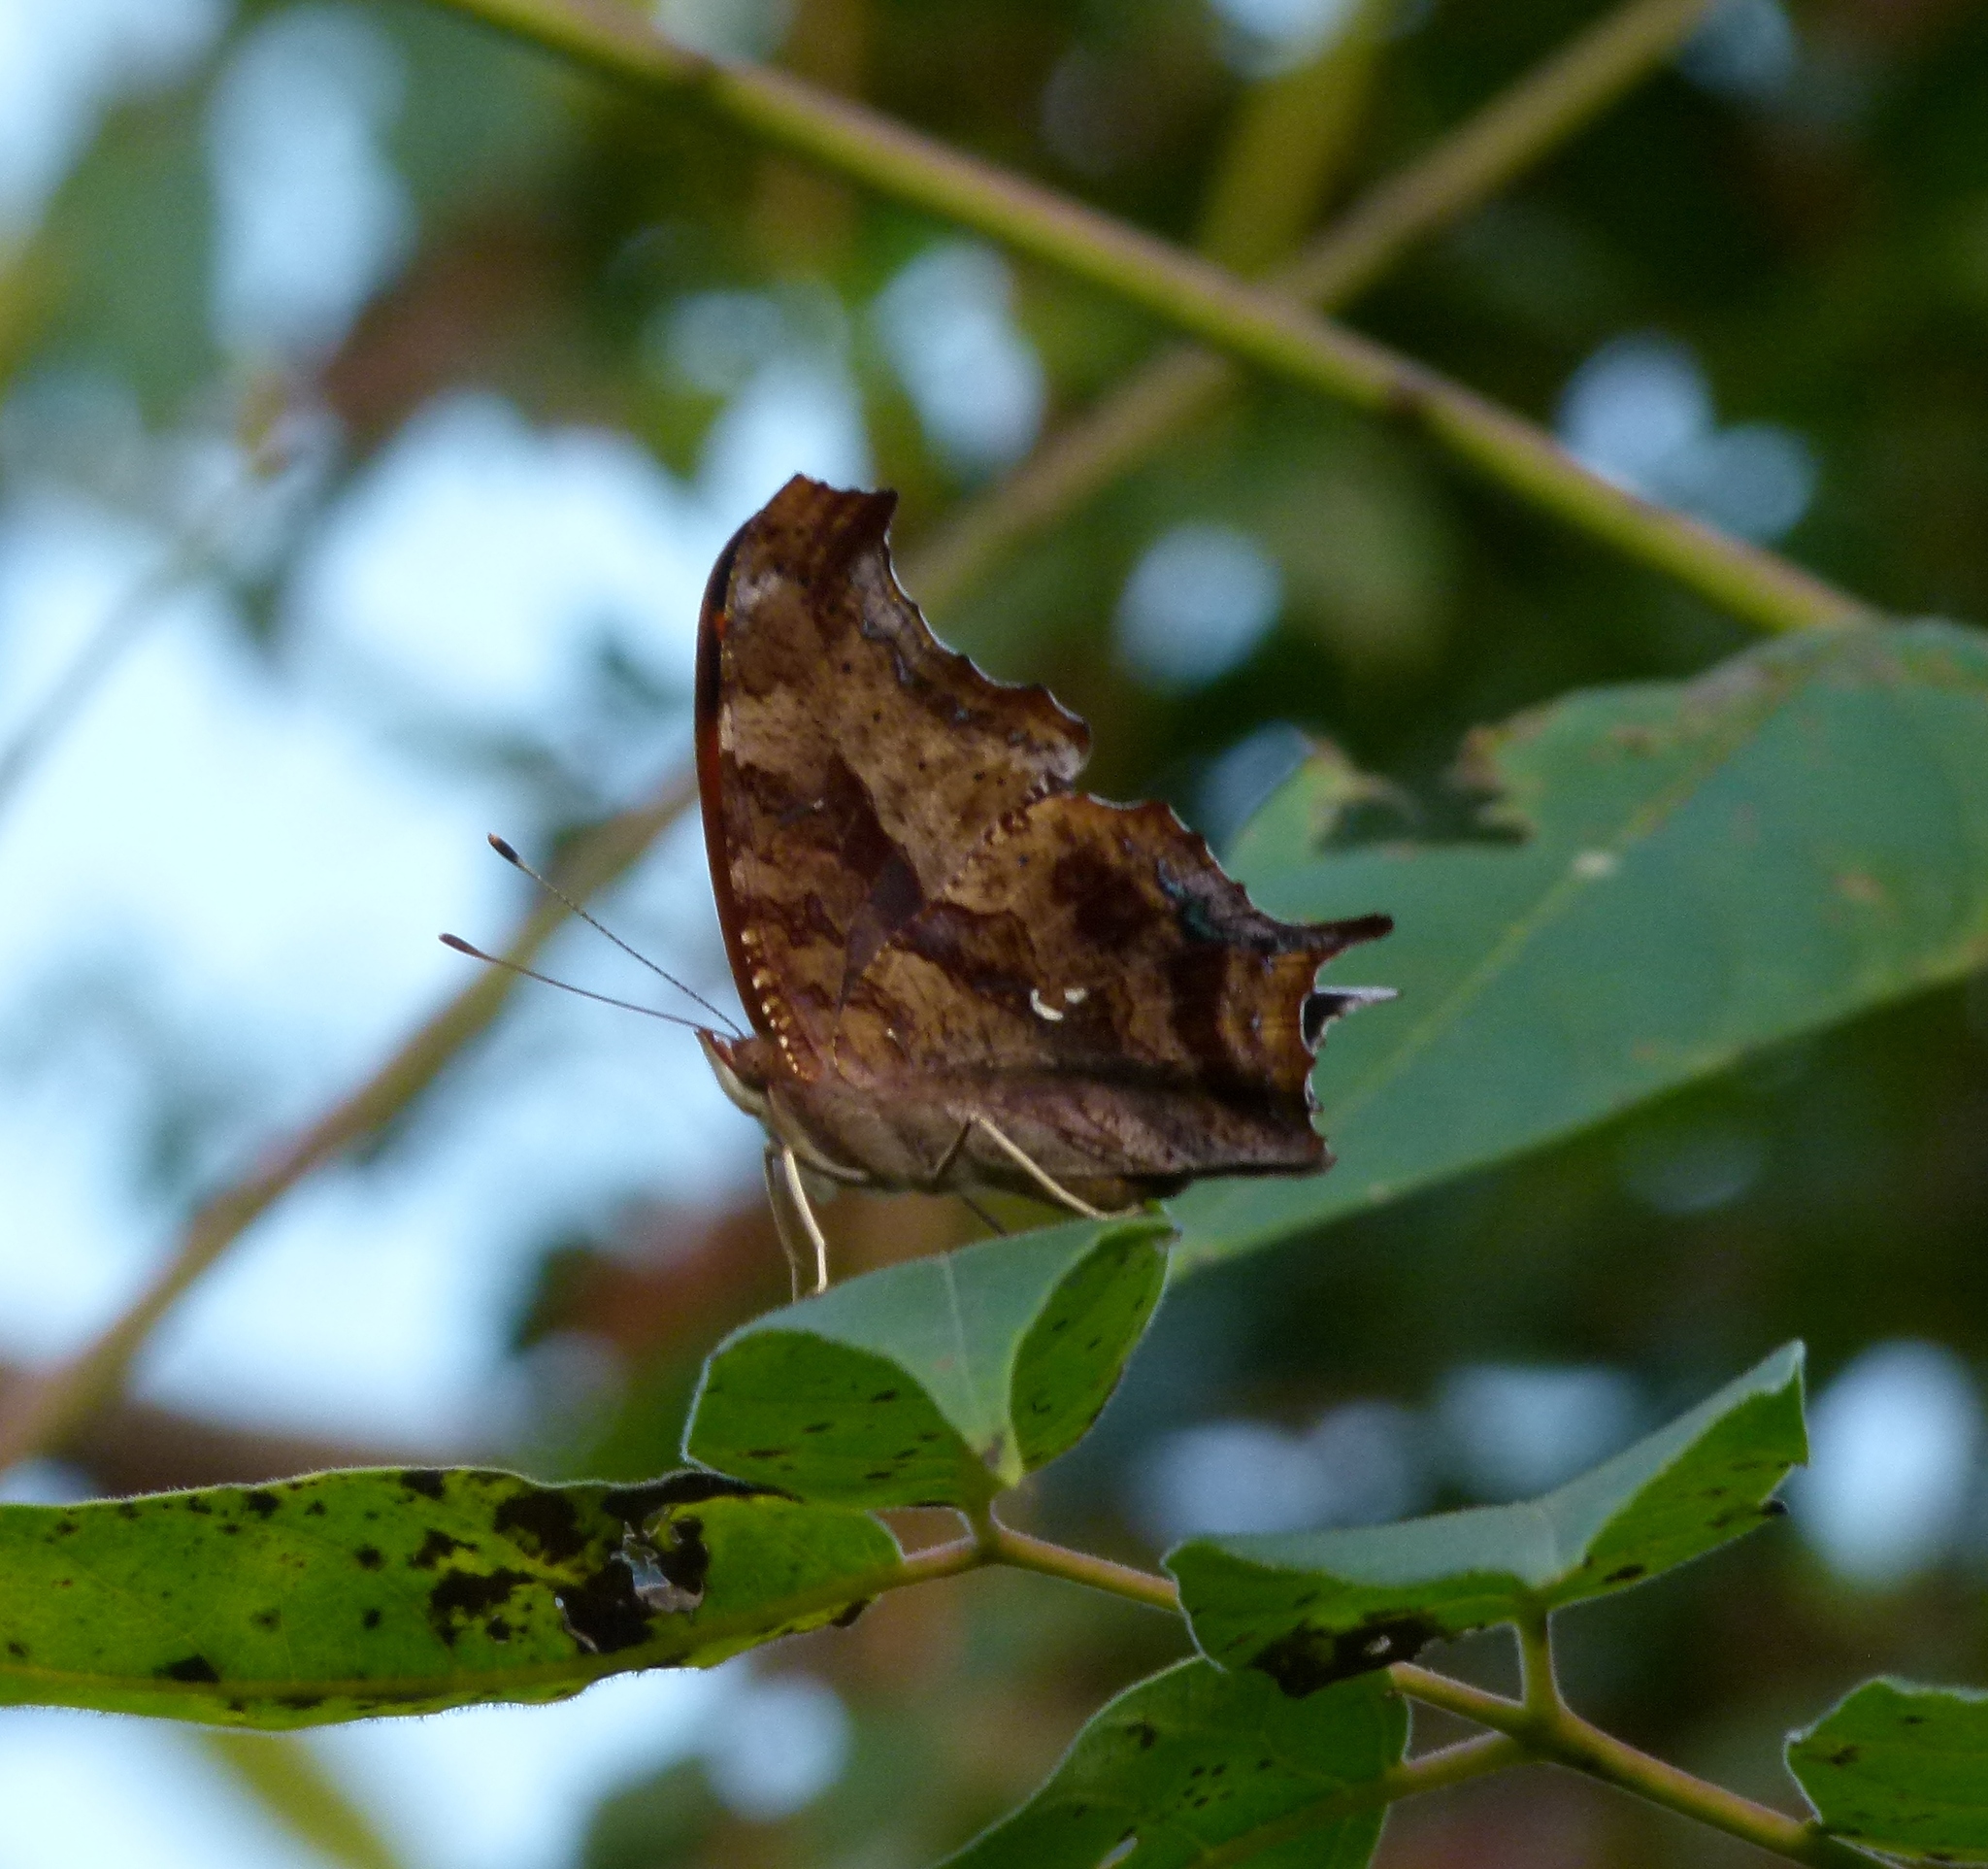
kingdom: Animalia
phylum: Arthropoda
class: Insecta
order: Lepidoptera
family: Nymphalidae
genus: Polygonia
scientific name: Polygonia interrogationis
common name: Question mark
